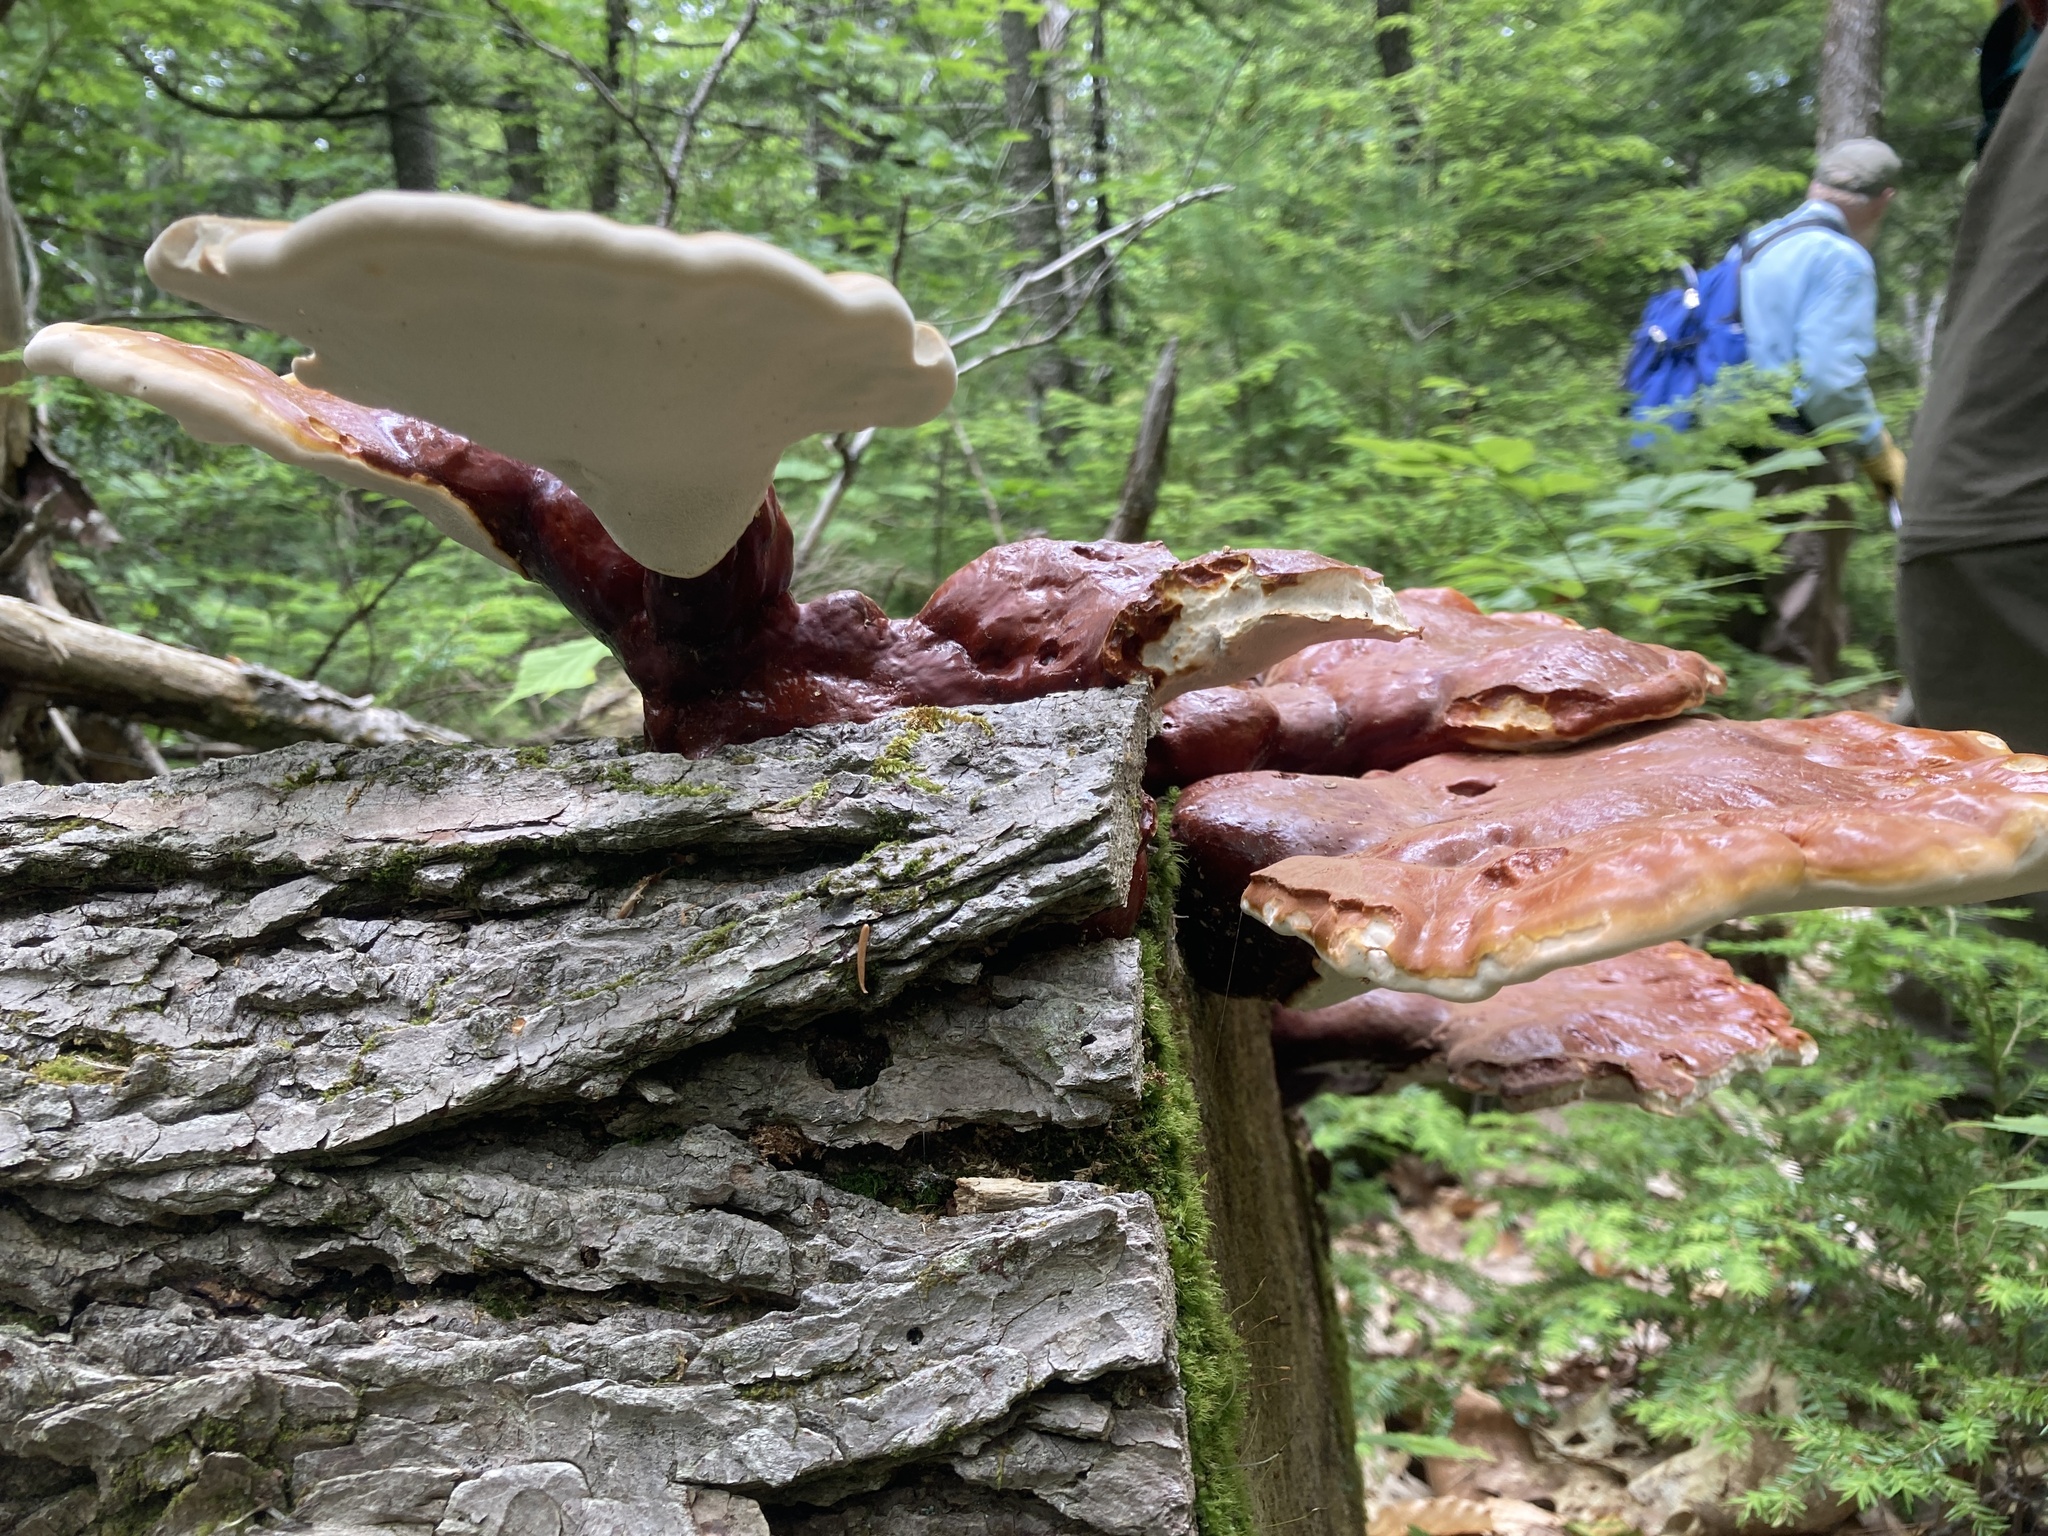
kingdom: Fungi
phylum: Basidiomycota
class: Agaricomycetes
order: Polyporales
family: Polyporaceae
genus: Ganoderma
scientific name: Ganoderma tsugae
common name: Hemlock varnish shelf
